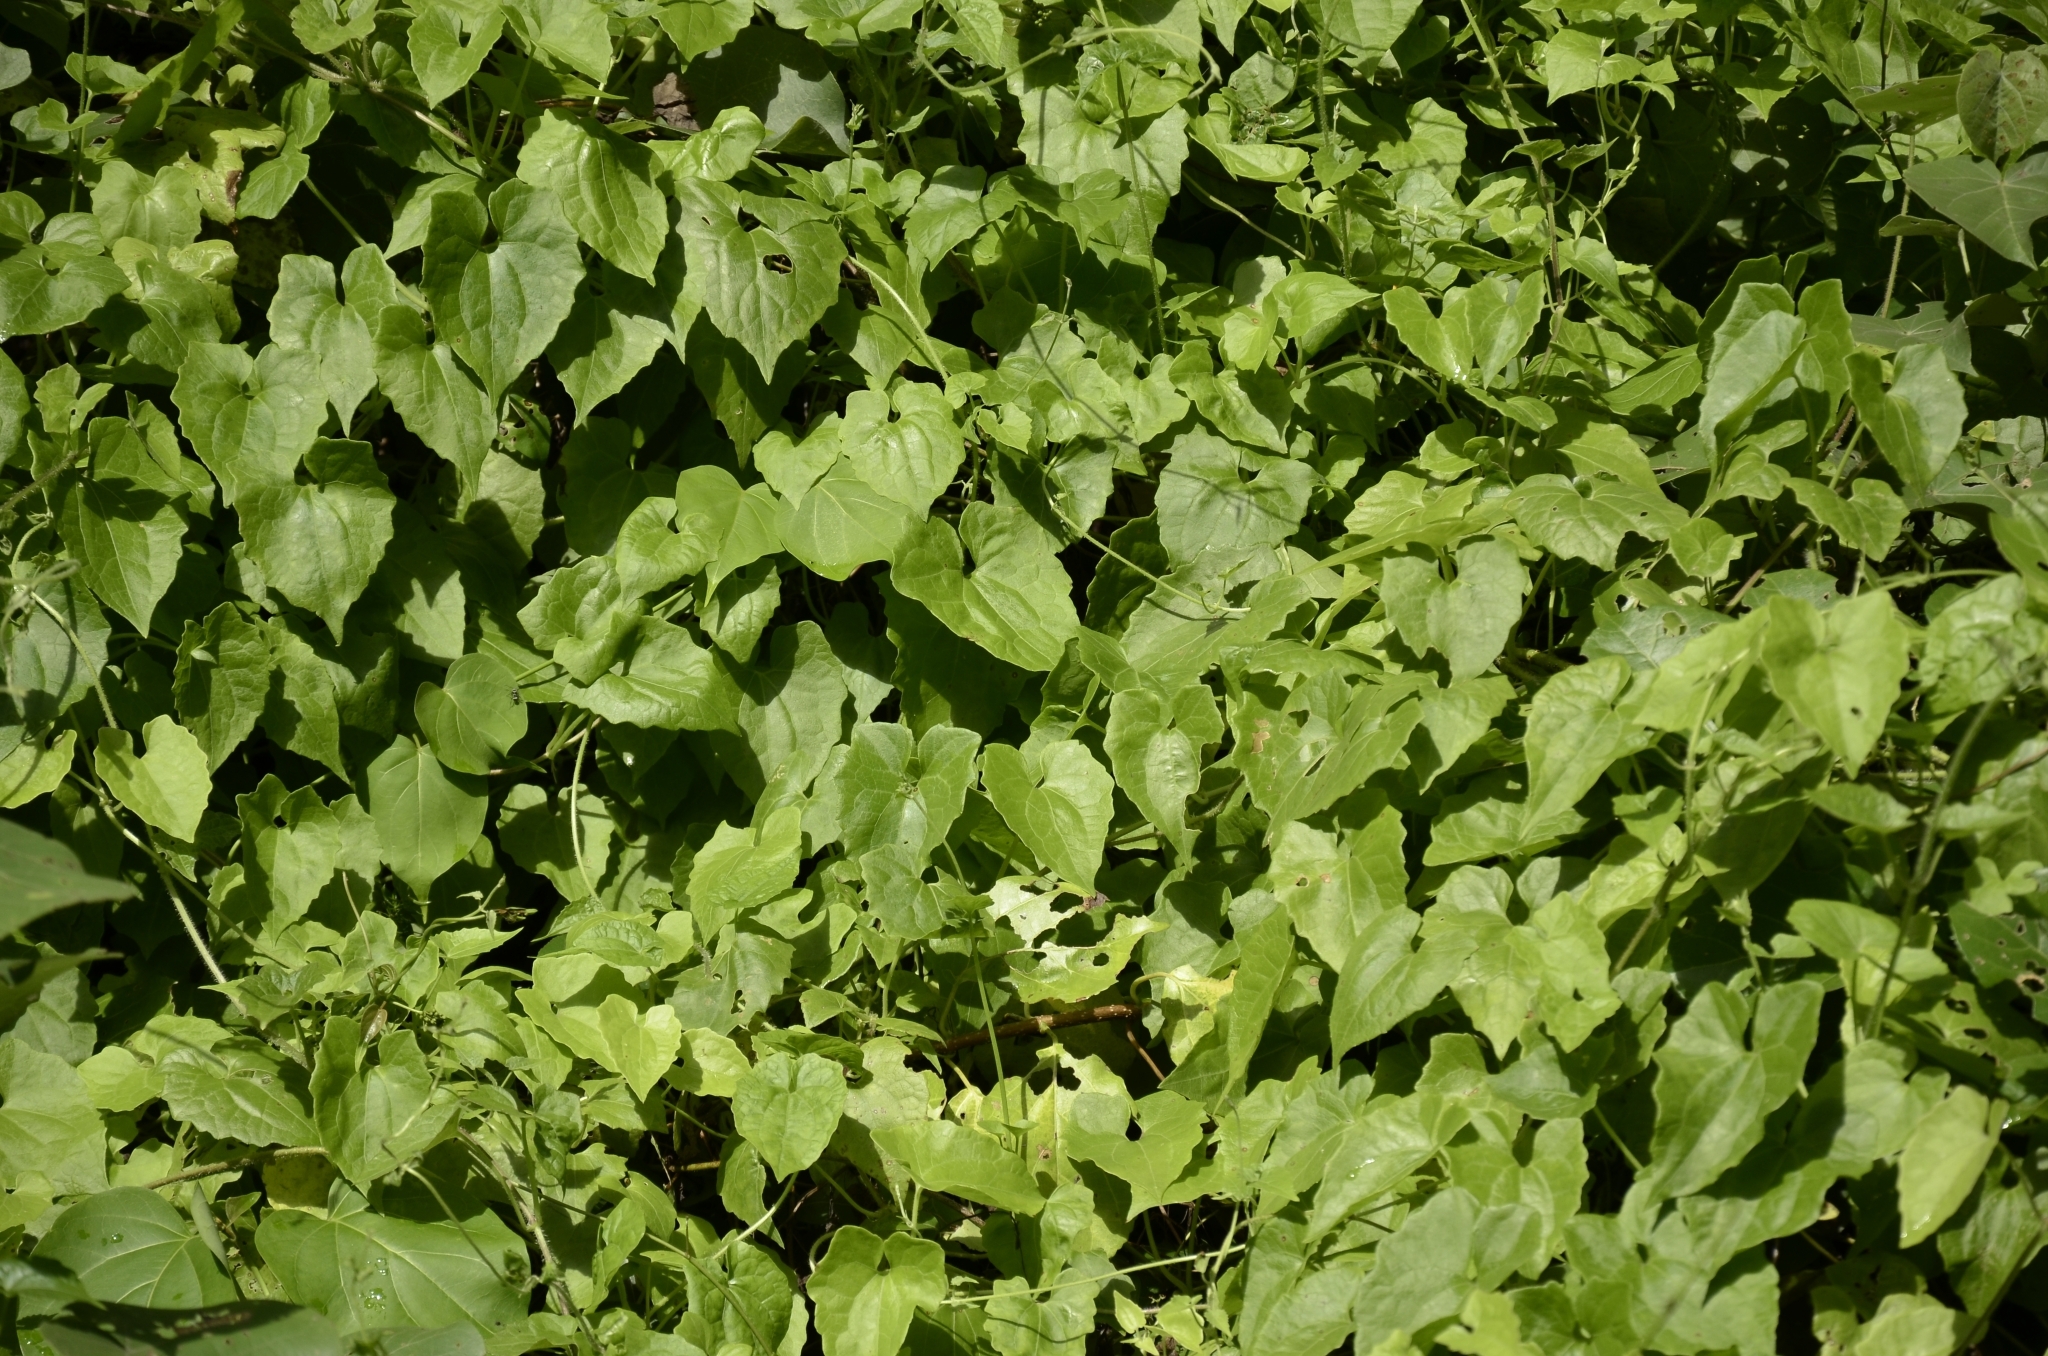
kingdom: Plantae
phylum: Tracheophyta
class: Magnoliopsida
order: Asterales
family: Asteraceae
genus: Mikania
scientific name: Mikania micrantha
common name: Mile-a-minute
